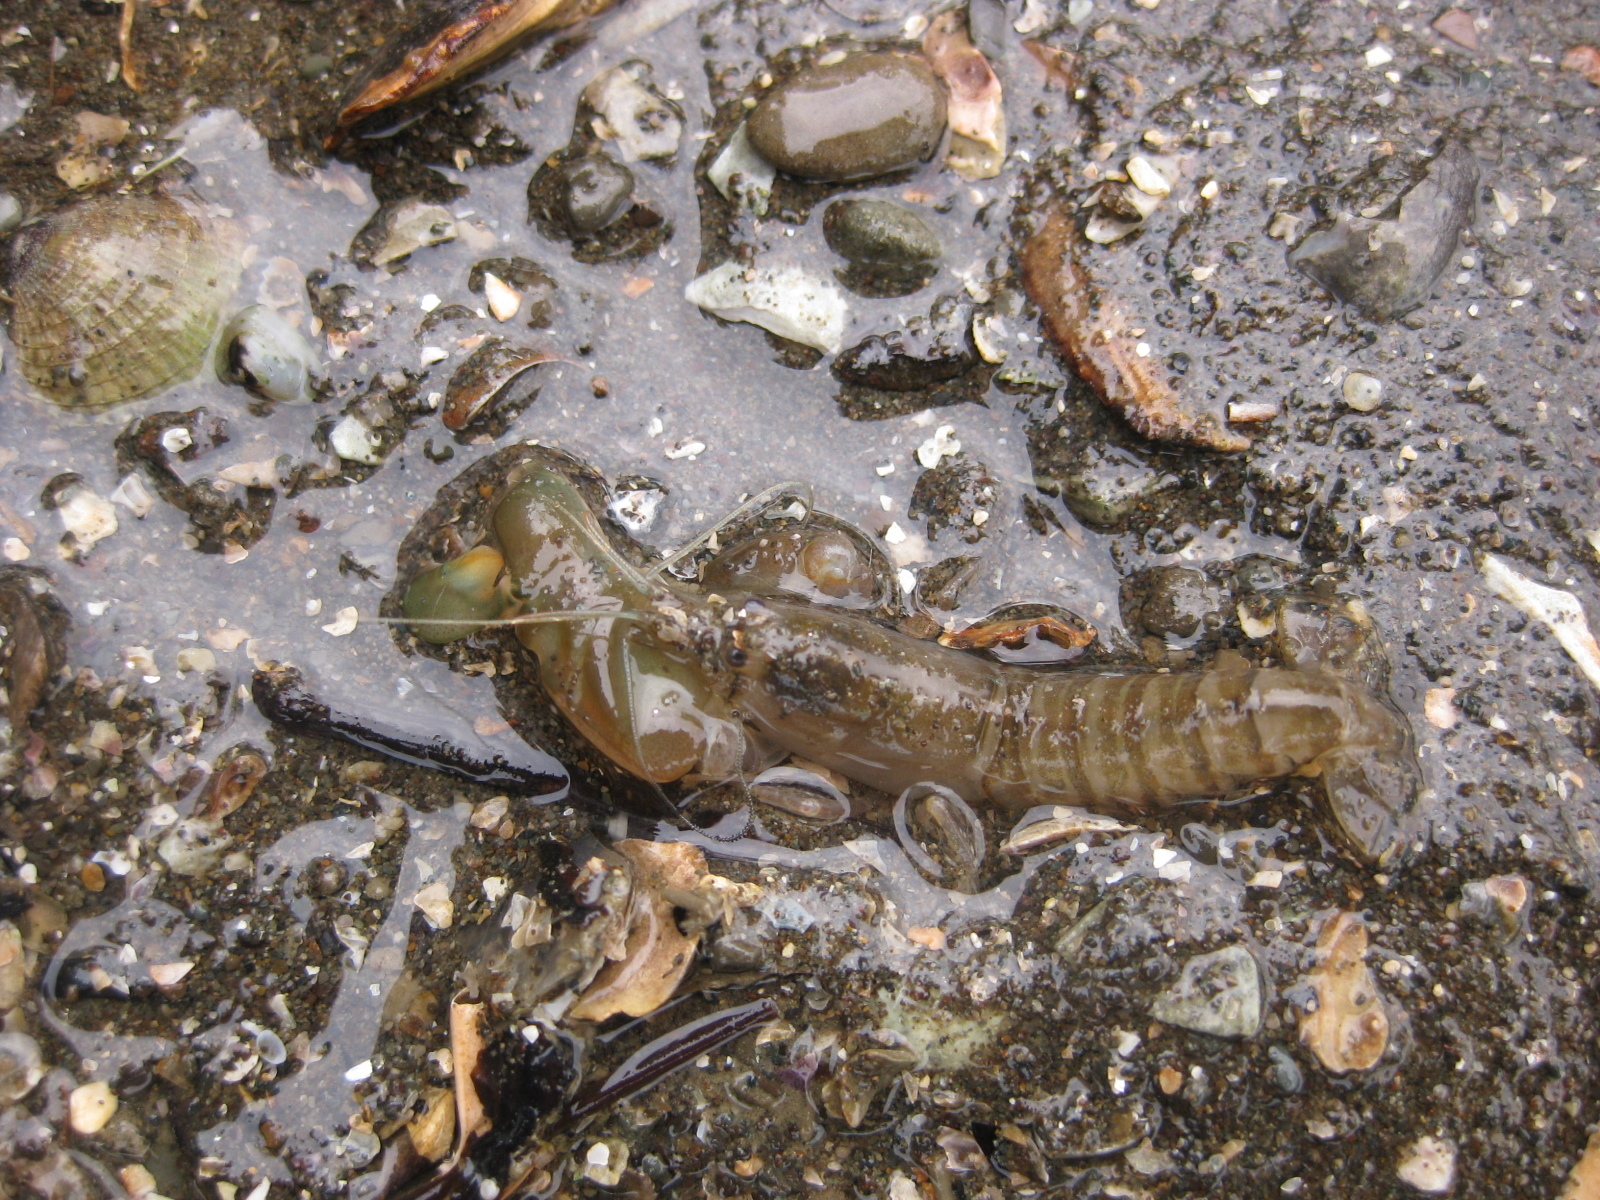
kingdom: Animalia
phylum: Arthropoda
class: Malacostraca
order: Decapoda
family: Alpheidae
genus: Alpheus
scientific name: Alpheus richardsoni
